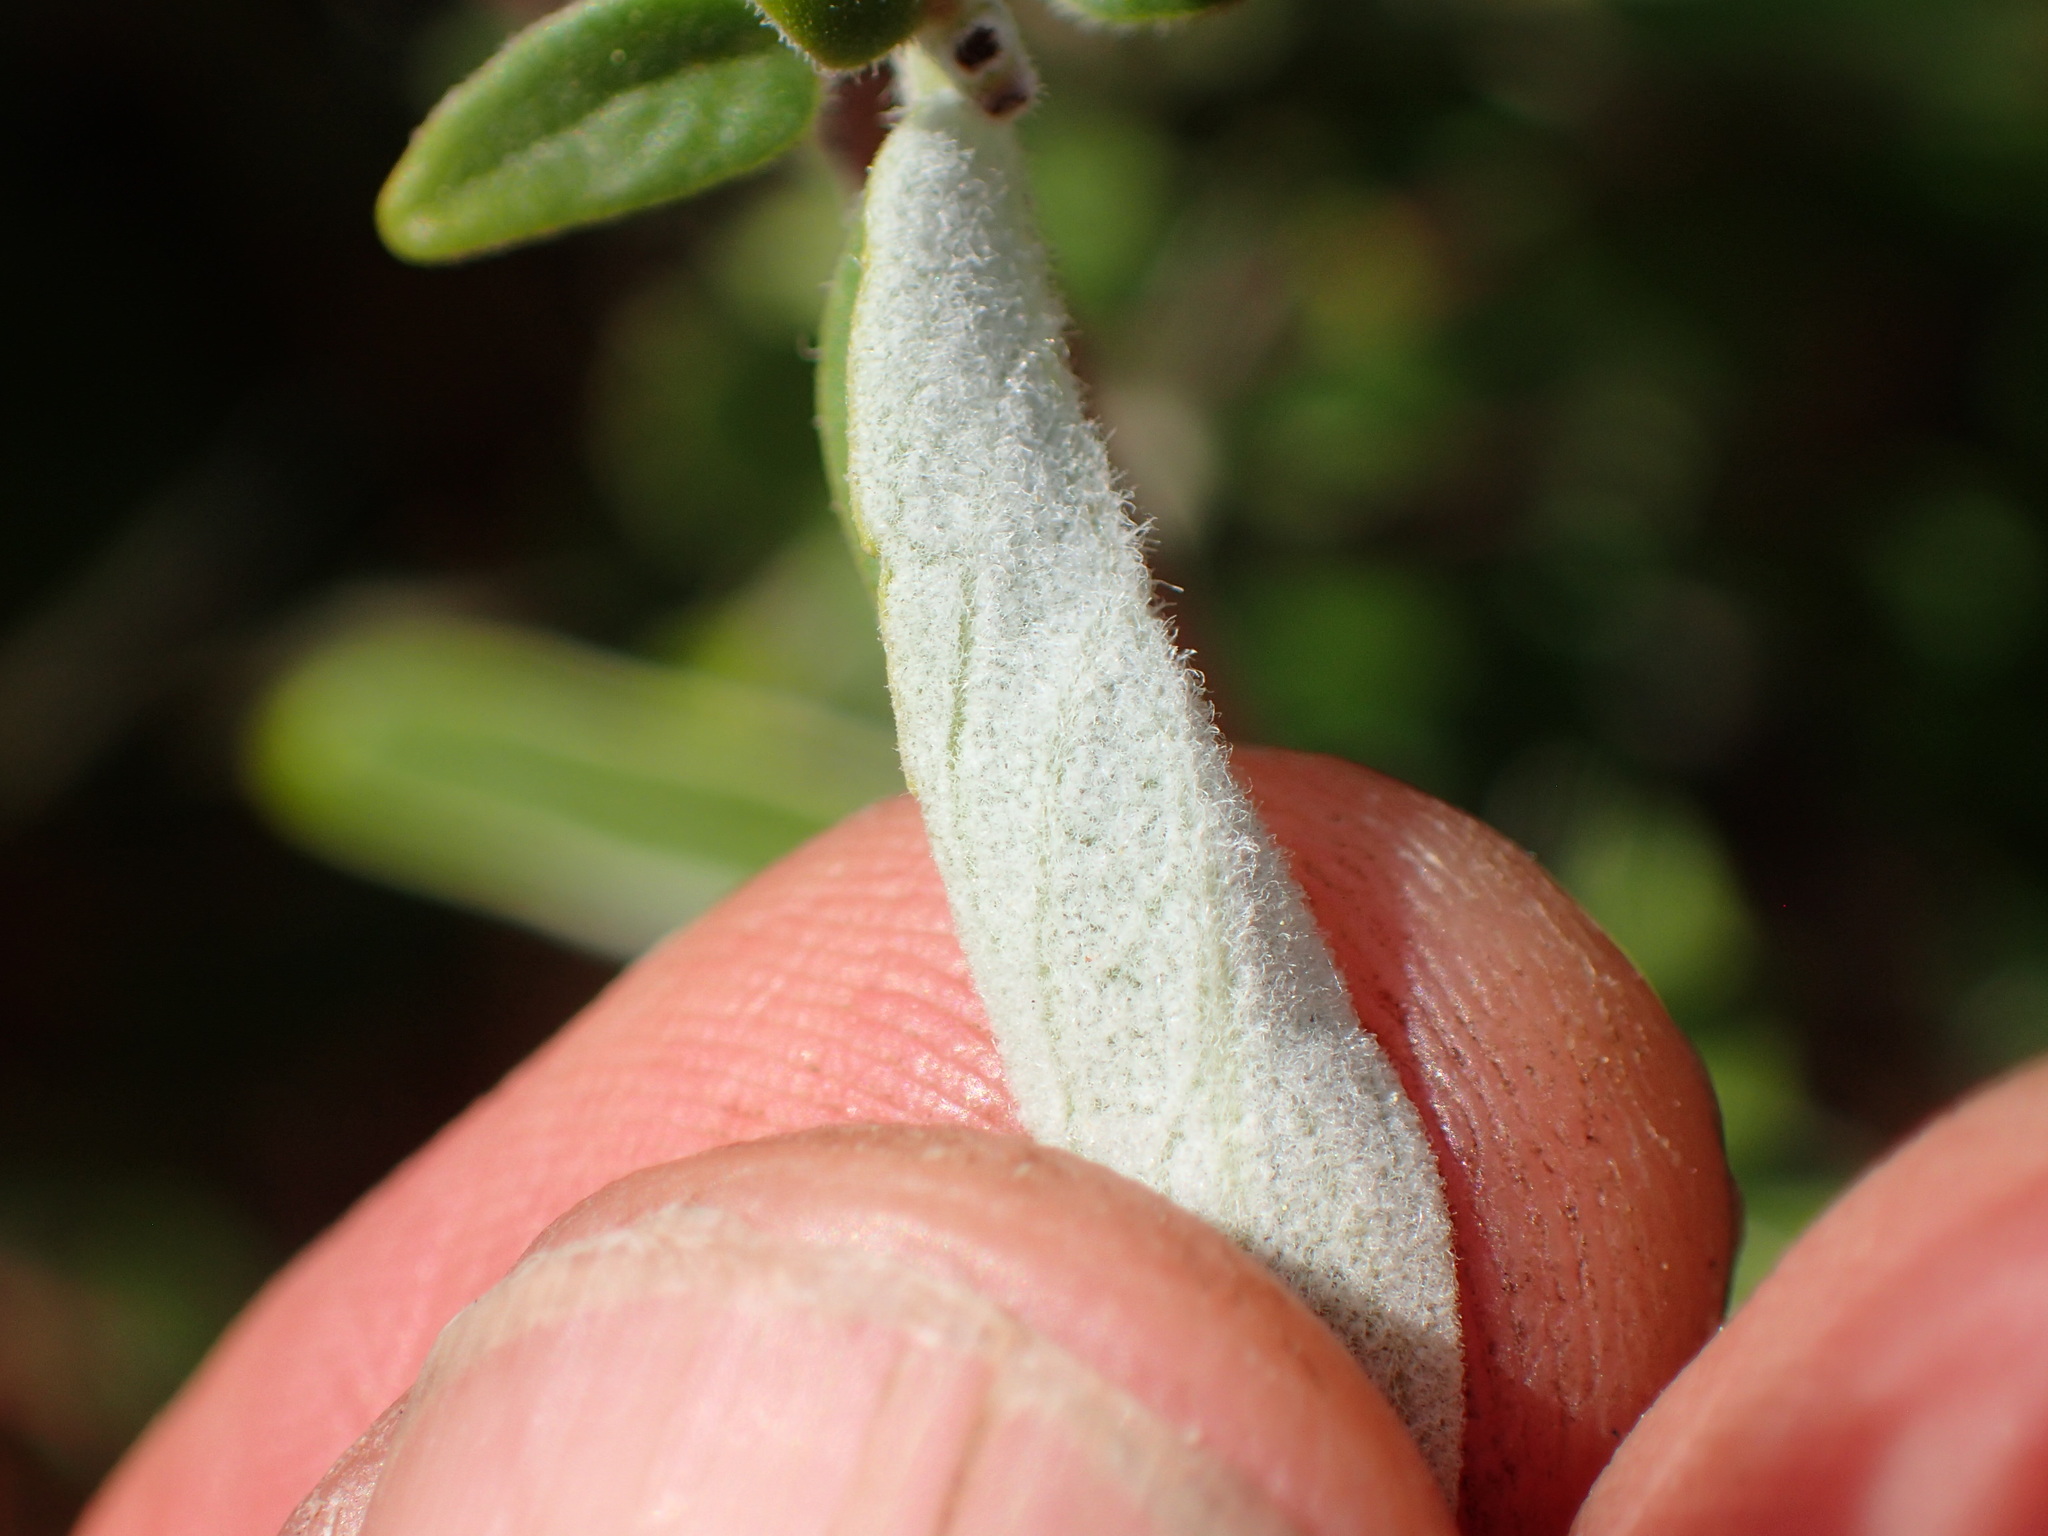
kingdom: Plantae
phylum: Tracheophyta
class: Magnoliopsida
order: Lamiales
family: Lamiaceae
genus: Monardella
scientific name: Monardella hypoleuca
